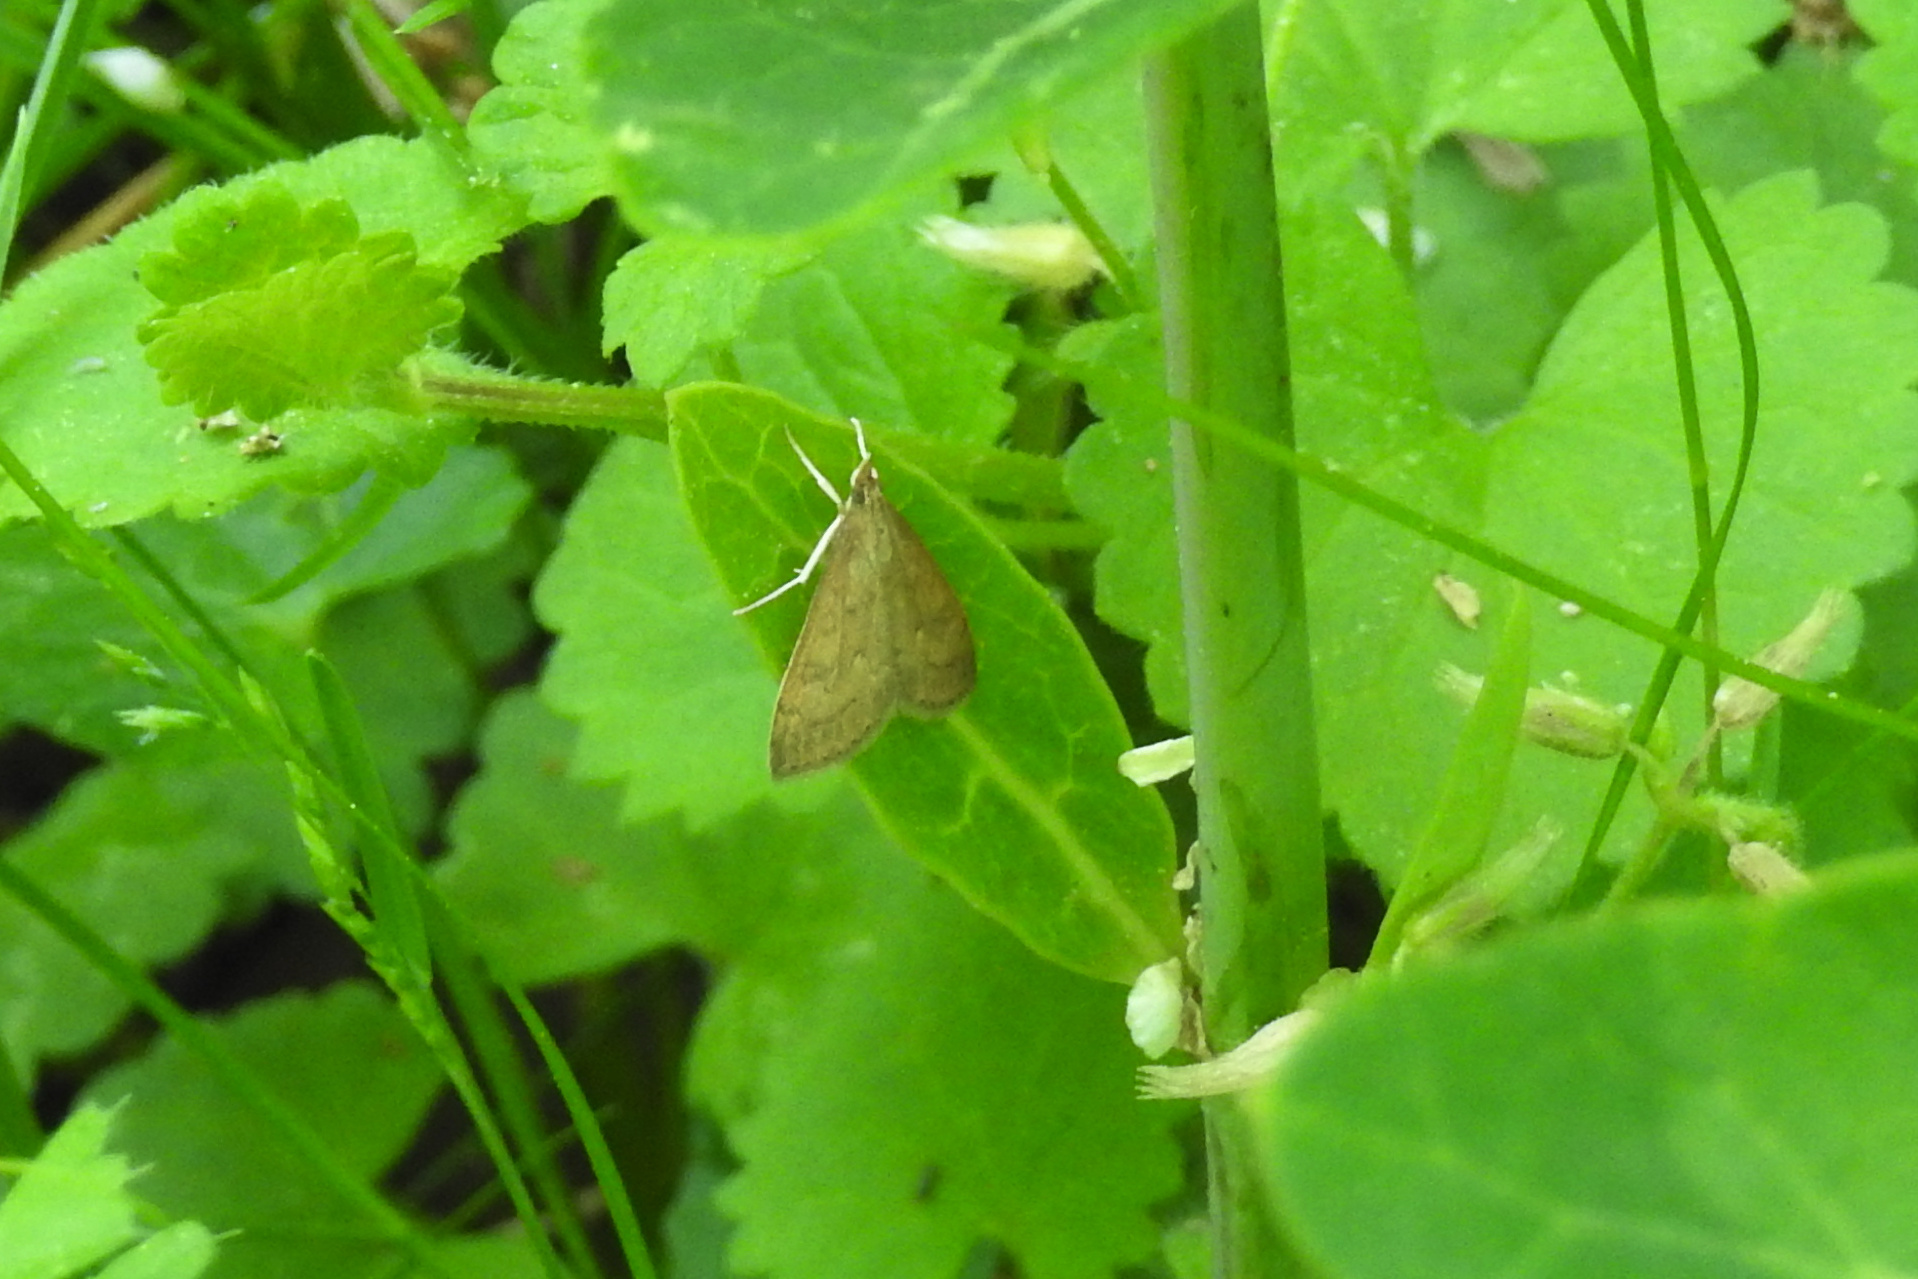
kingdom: Animalia
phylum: Arthropoda
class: Insecta
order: Lepidoptera
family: Crambidae
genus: Udea
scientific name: Udea rubigalis
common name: Celery leaftier moth
